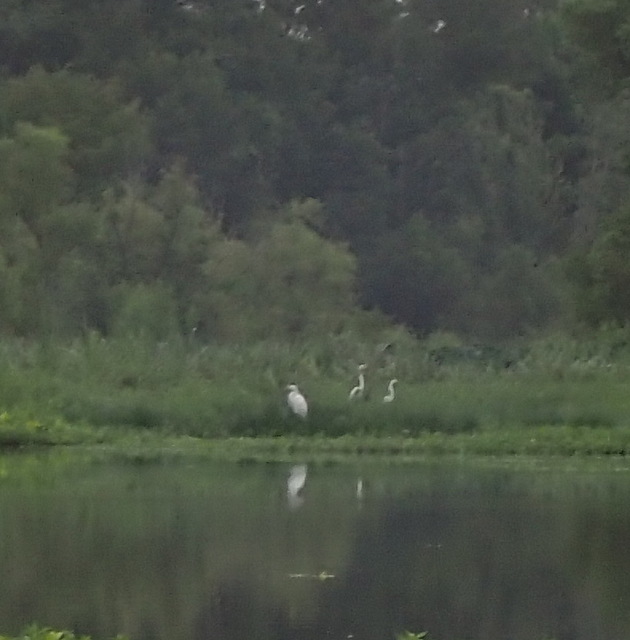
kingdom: Animalia
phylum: Chordata
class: Aves
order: Pelecaniformes
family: Ardeidae
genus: Ardea
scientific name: Ardea alba
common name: Great egret
